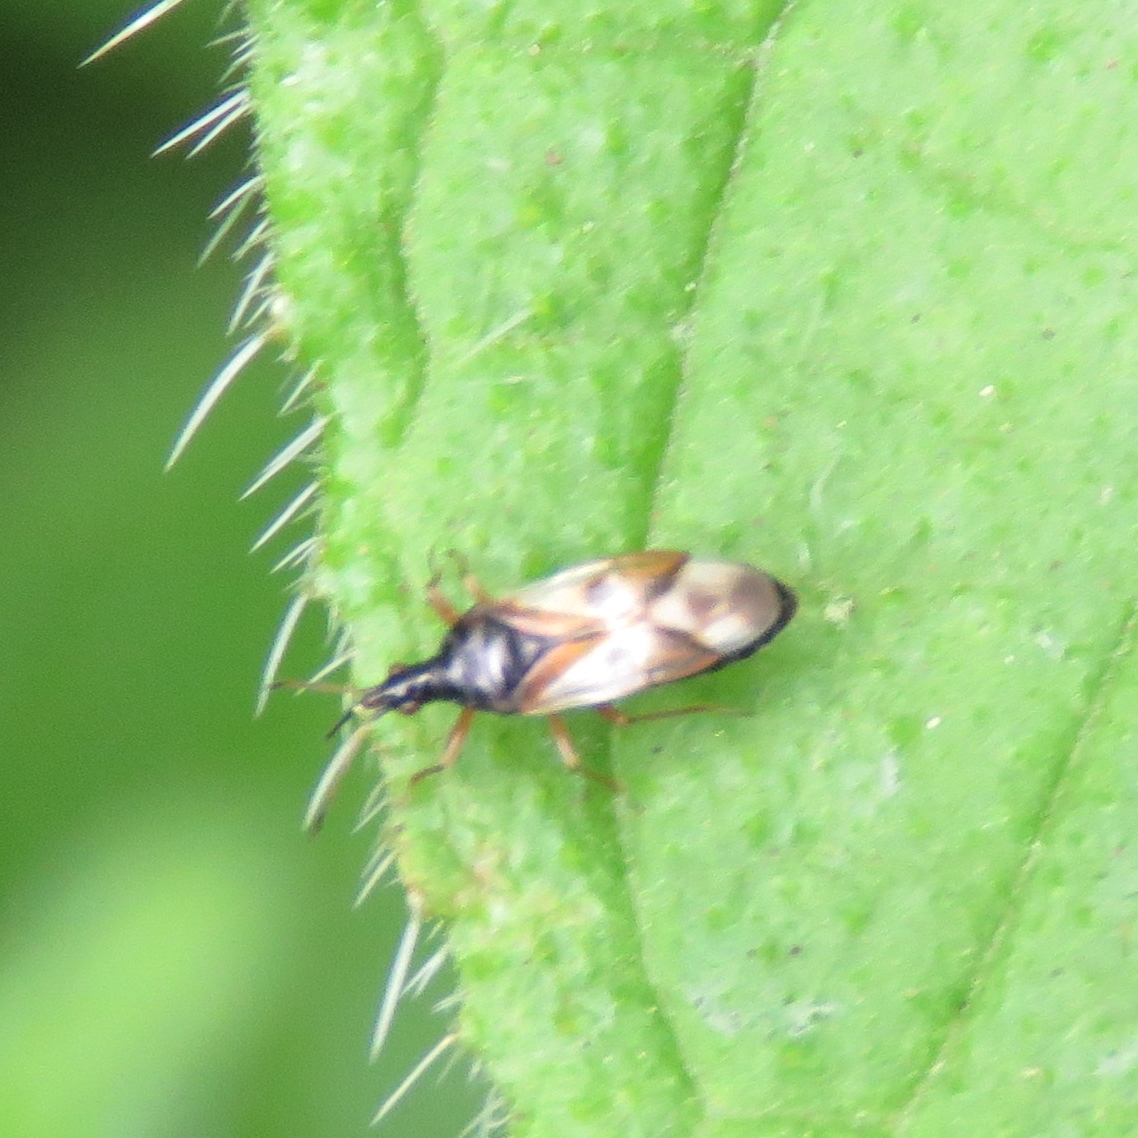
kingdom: Animalia
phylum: Arthropoda
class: Insecta
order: Hemiptera
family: Anthocoridae
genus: Anthocoris
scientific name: Anthocoris nemorum
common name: Minute pirate bug
